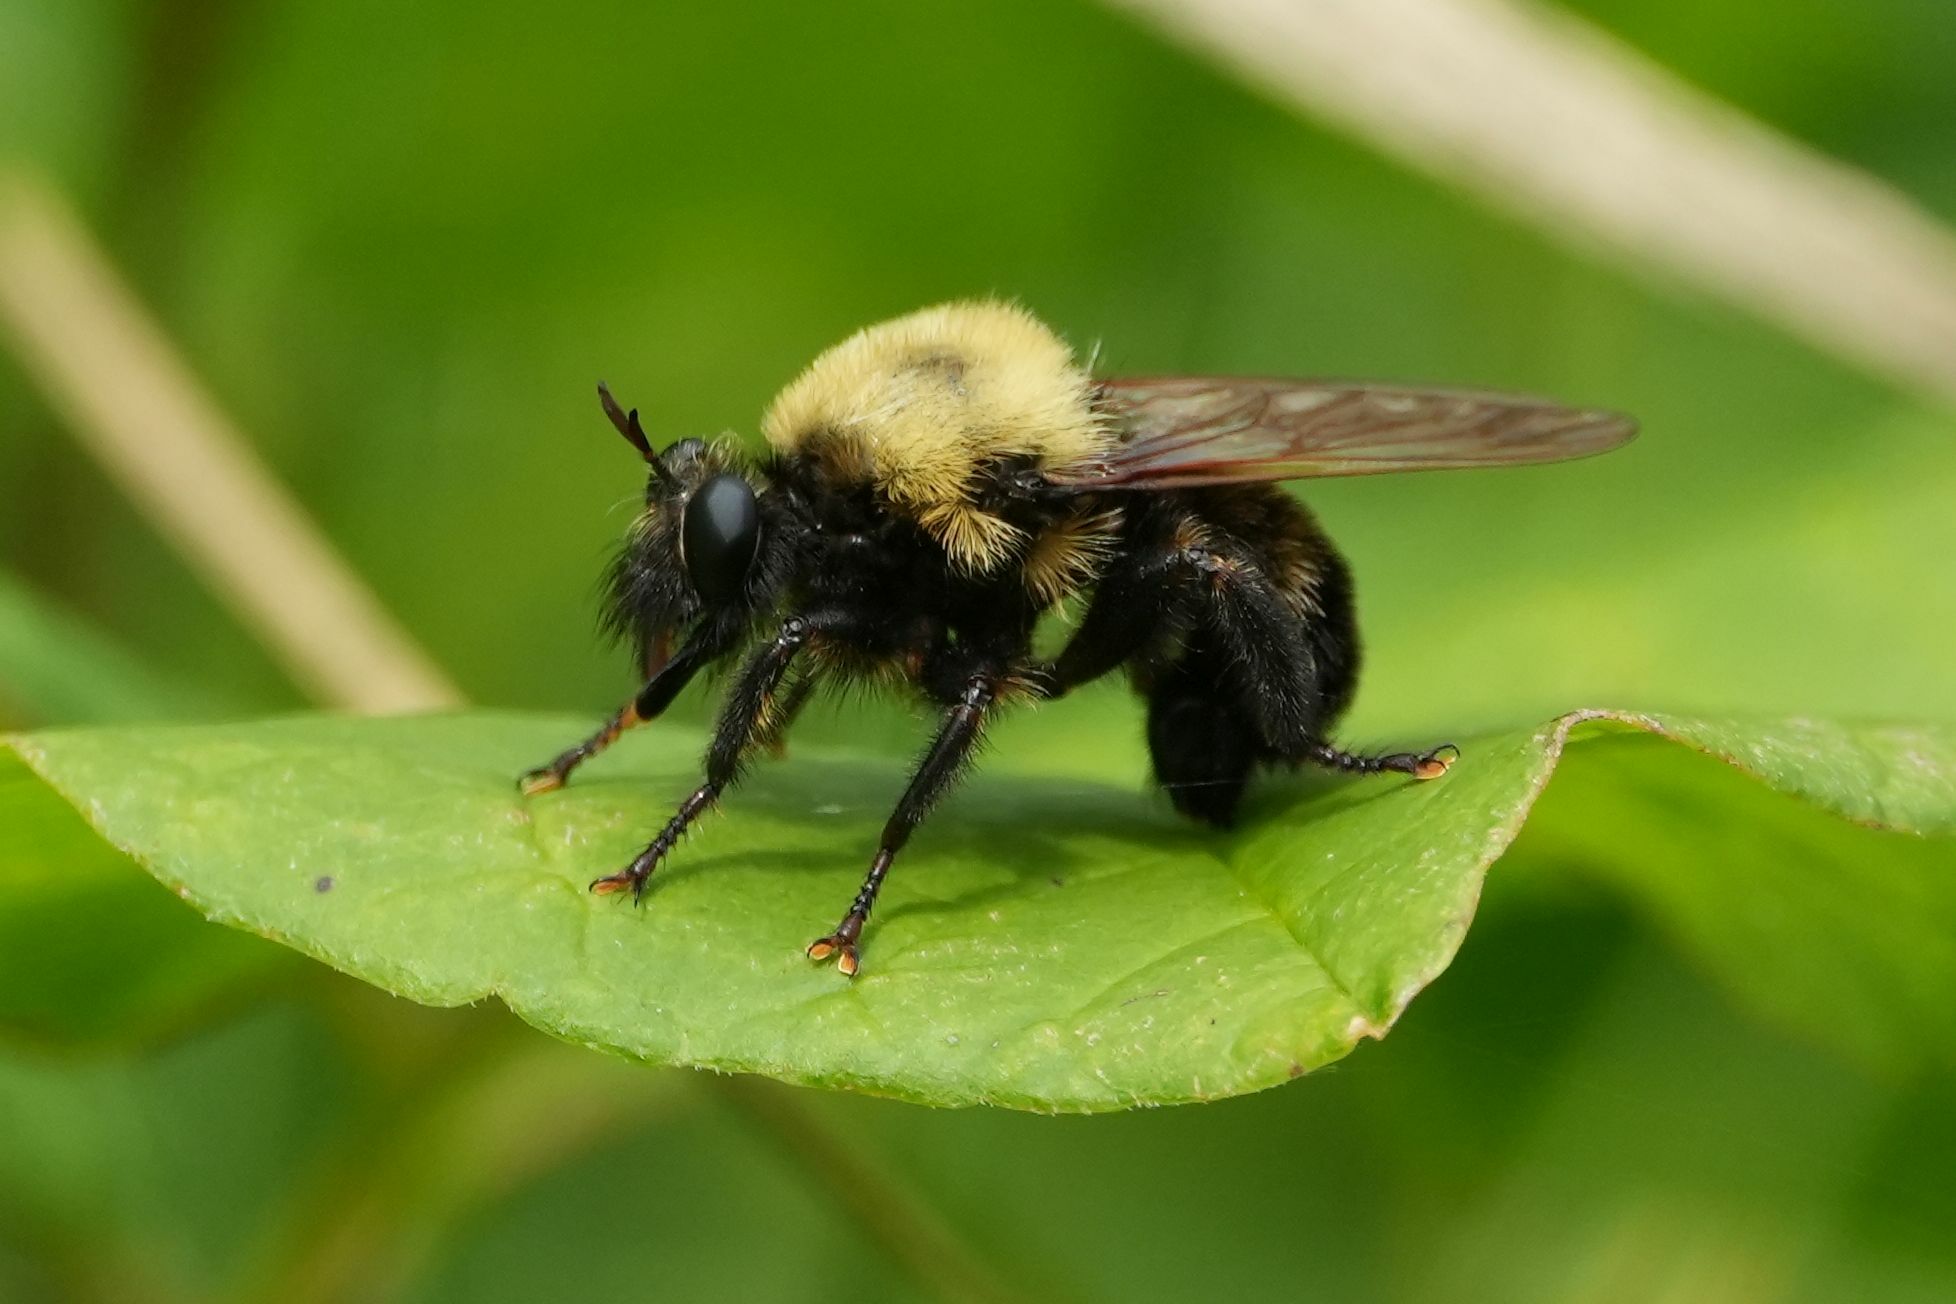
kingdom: Animalia
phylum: Arthropoda
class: Insecta
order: Diptera
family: Asilidae
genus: Laphria
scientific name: Laphria thoracica
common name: Bumble bee mimic robber fly
